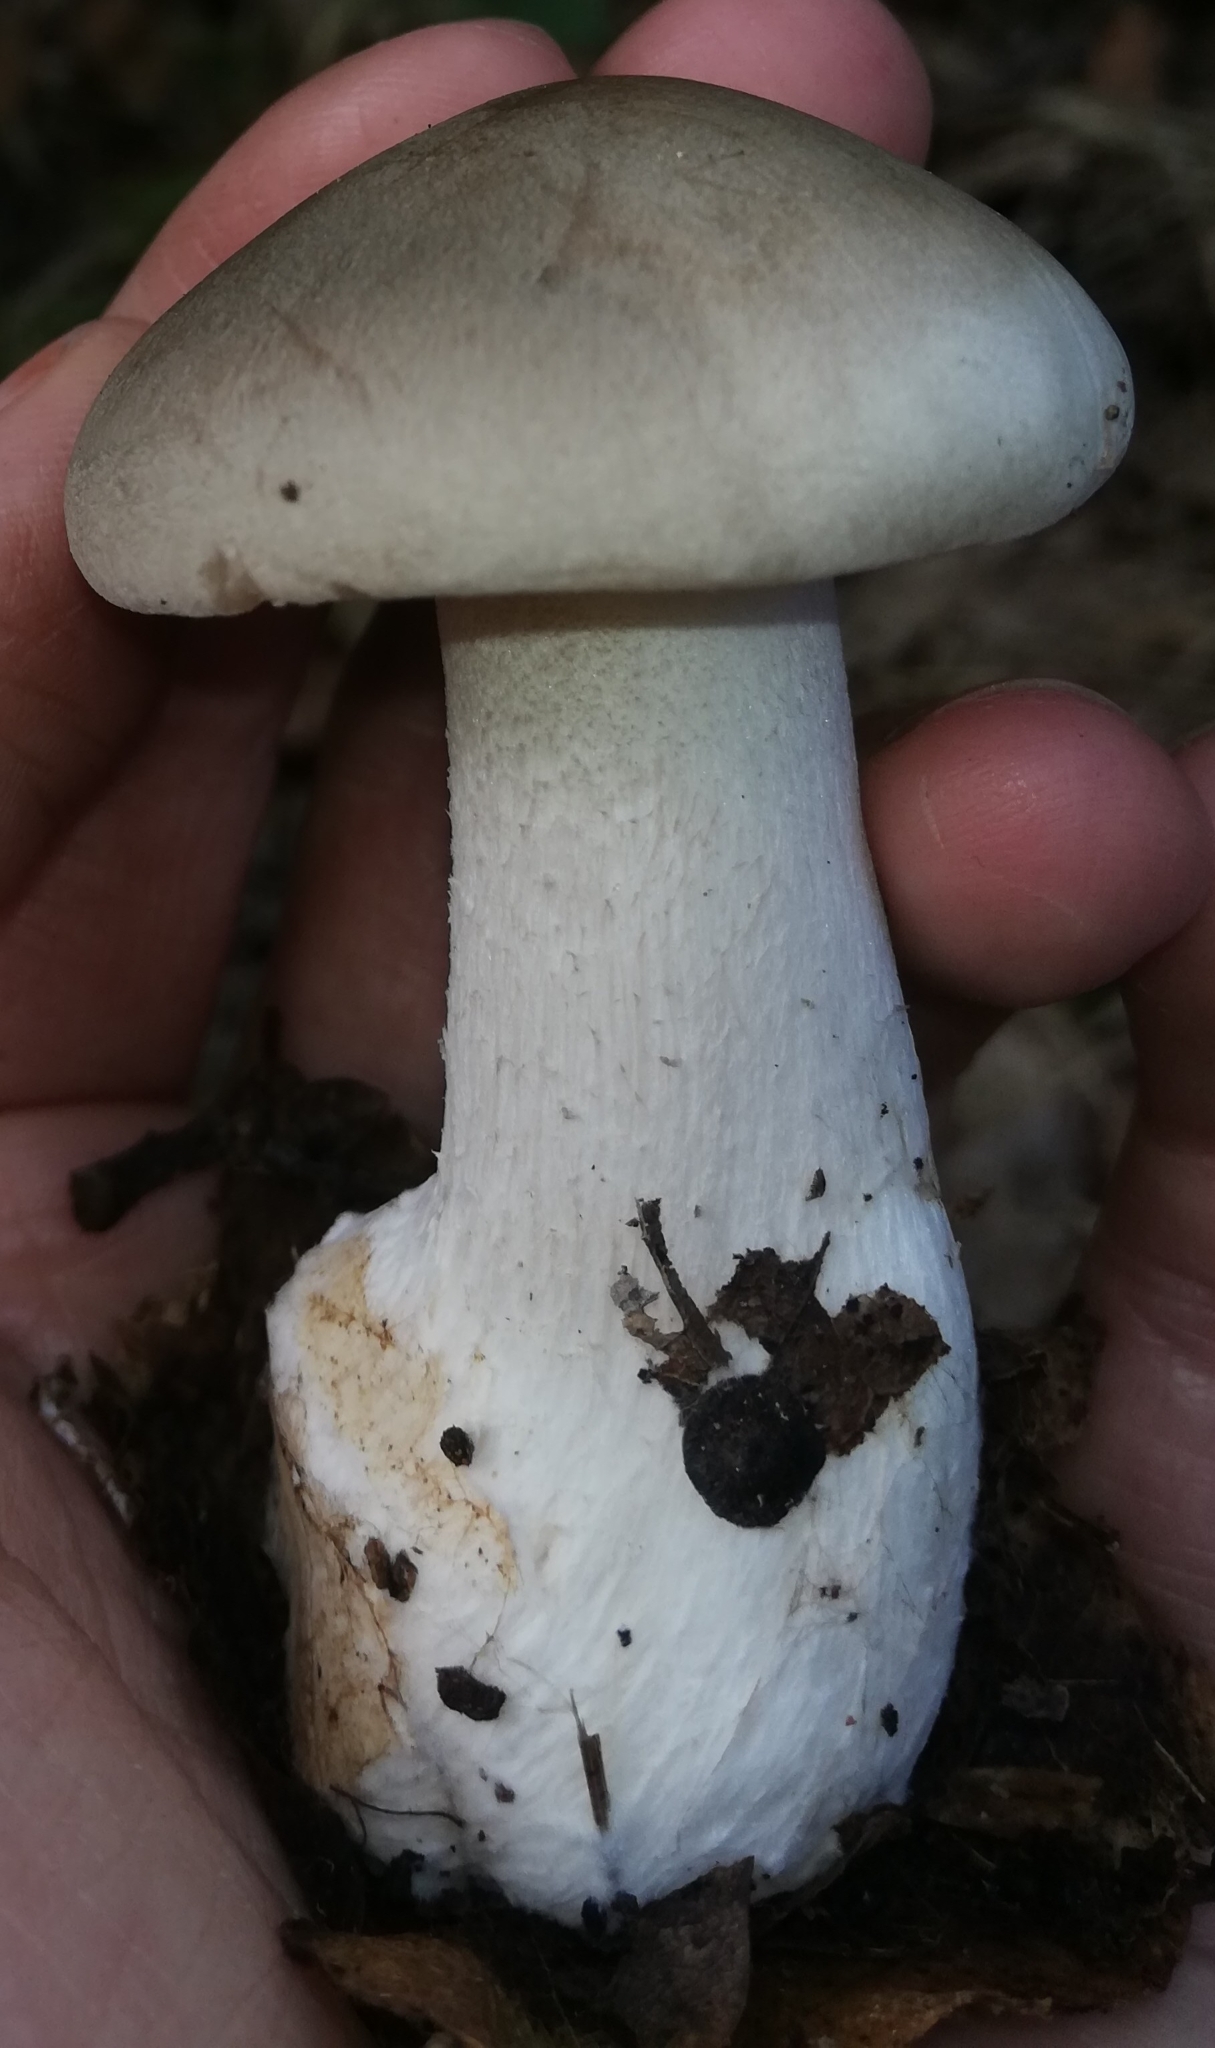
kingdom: Fungi
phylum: Basidiomycota
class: Agaricomycetes
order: Agaricales
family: Tricholomataceae
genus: Clitocybe
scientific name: Clitocybe nebularis
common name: Clouded agaric
